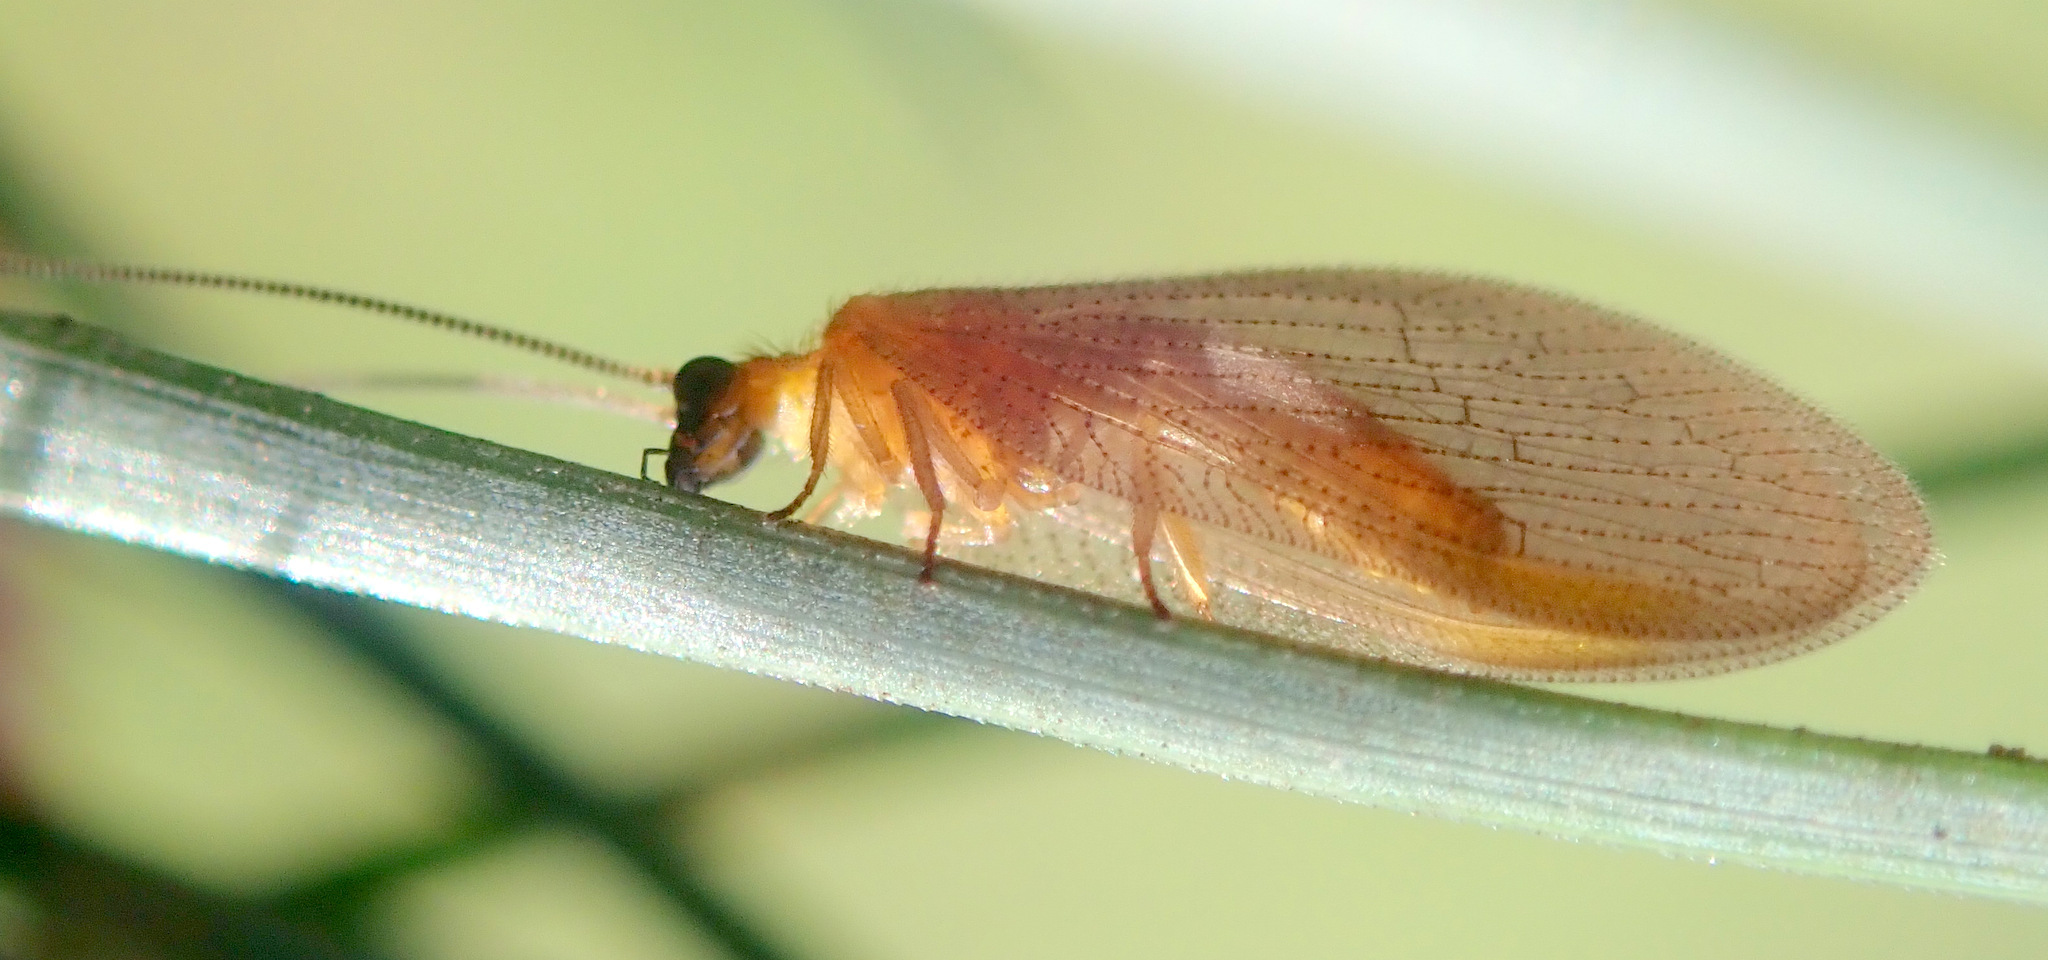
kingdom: Animalia
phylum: Arthropoda
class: Insecta
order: Neuroptera
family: Hemerobiidae
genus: Hemerobius
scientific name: Hemerobius nitidulus
